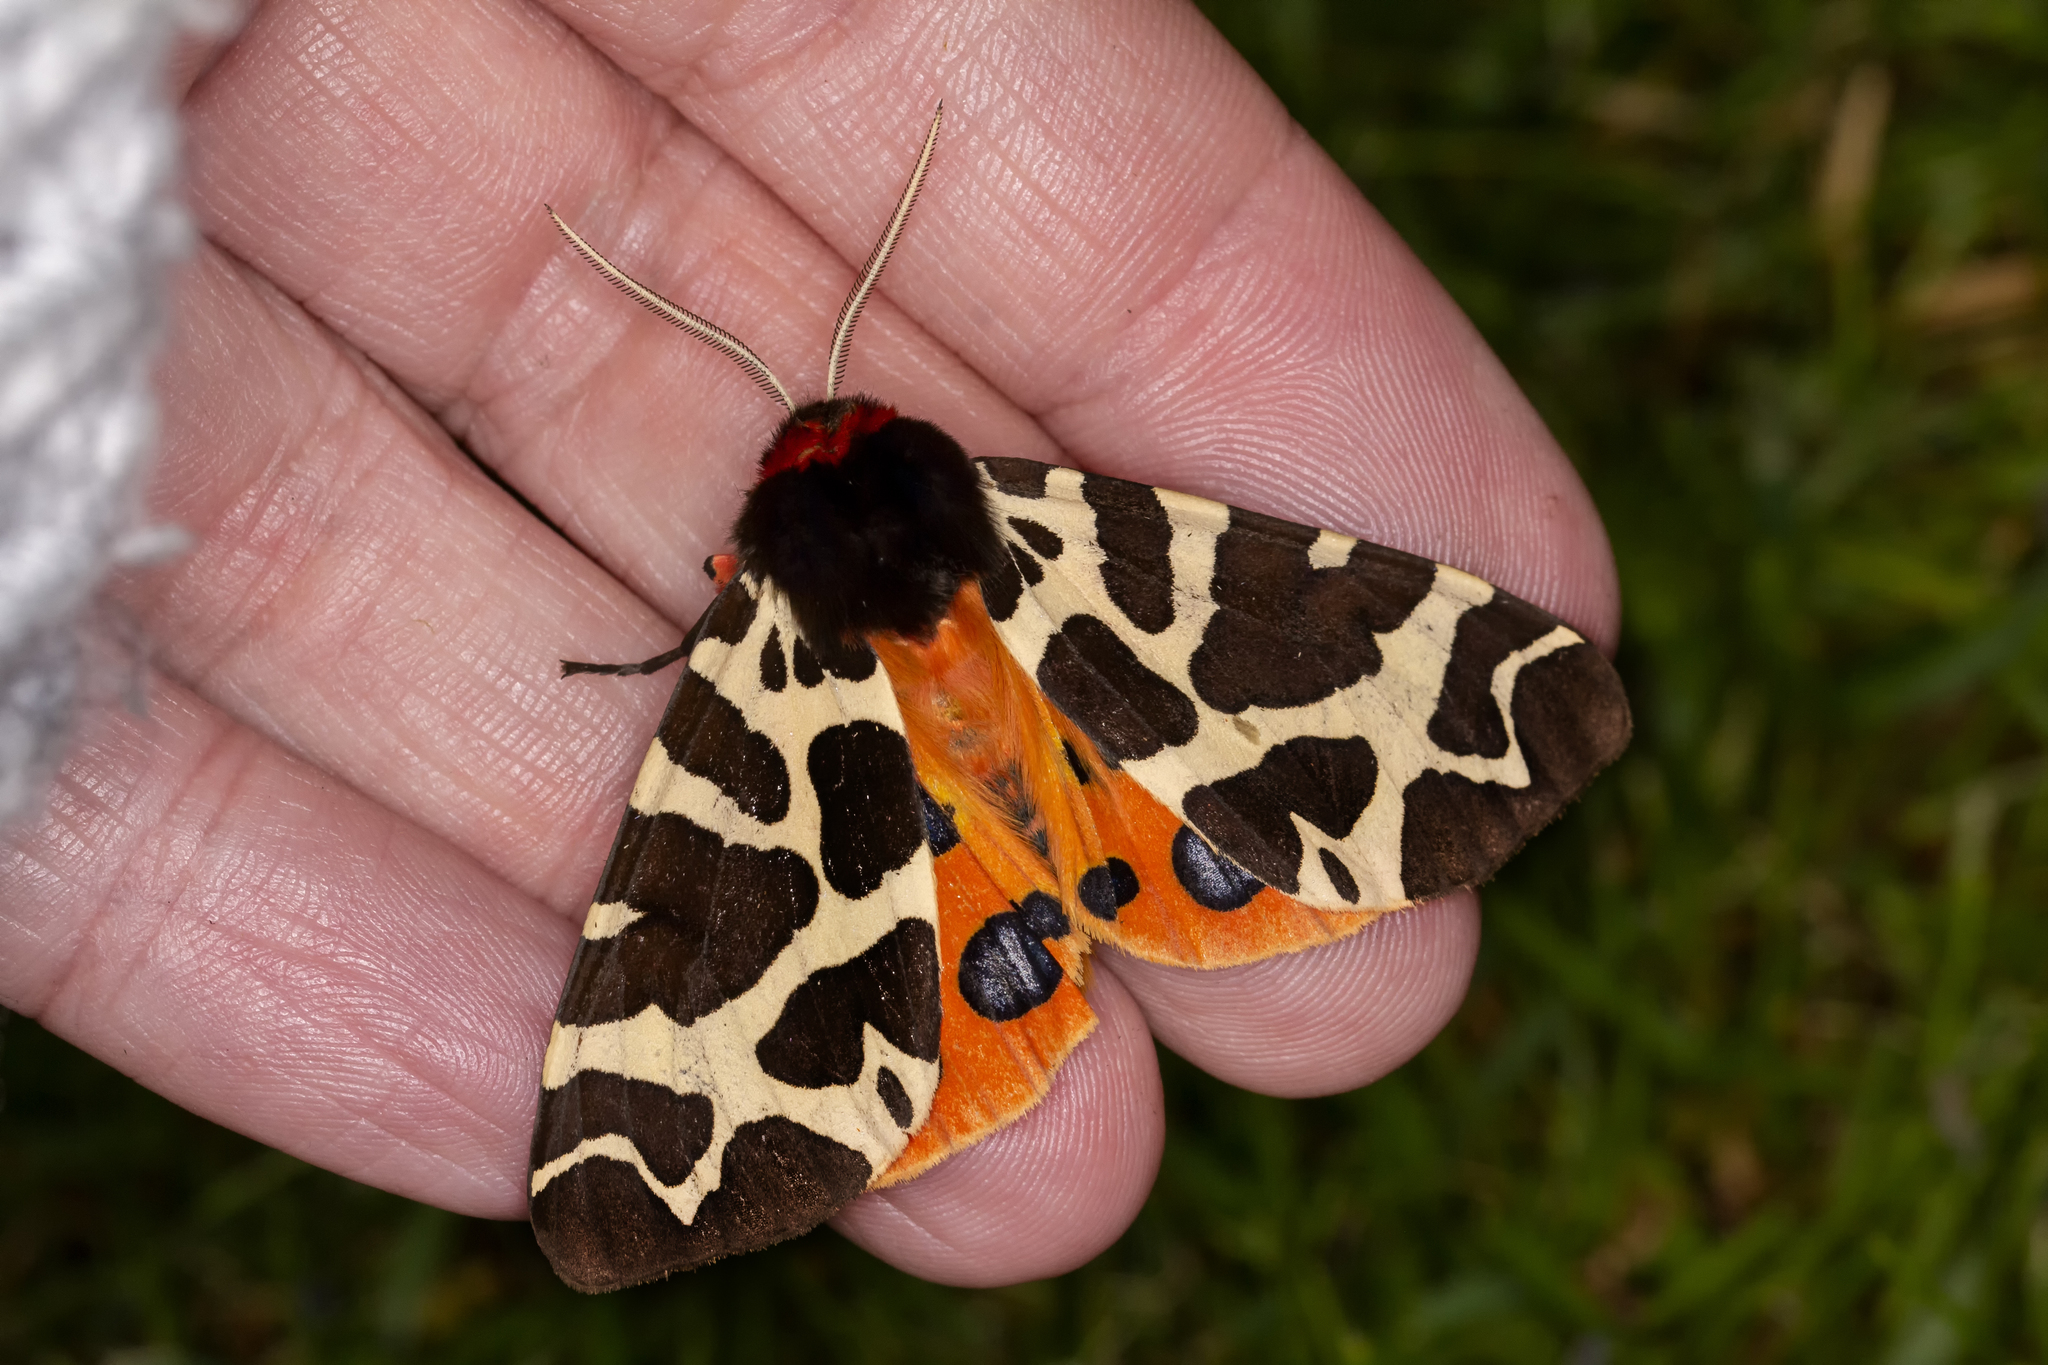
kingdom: Animalia
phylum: Arthropoda
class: Insecta
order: Lepidoptera
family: Erebidae
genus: Arctia
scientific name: Arctia caja
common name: Garden tiger
